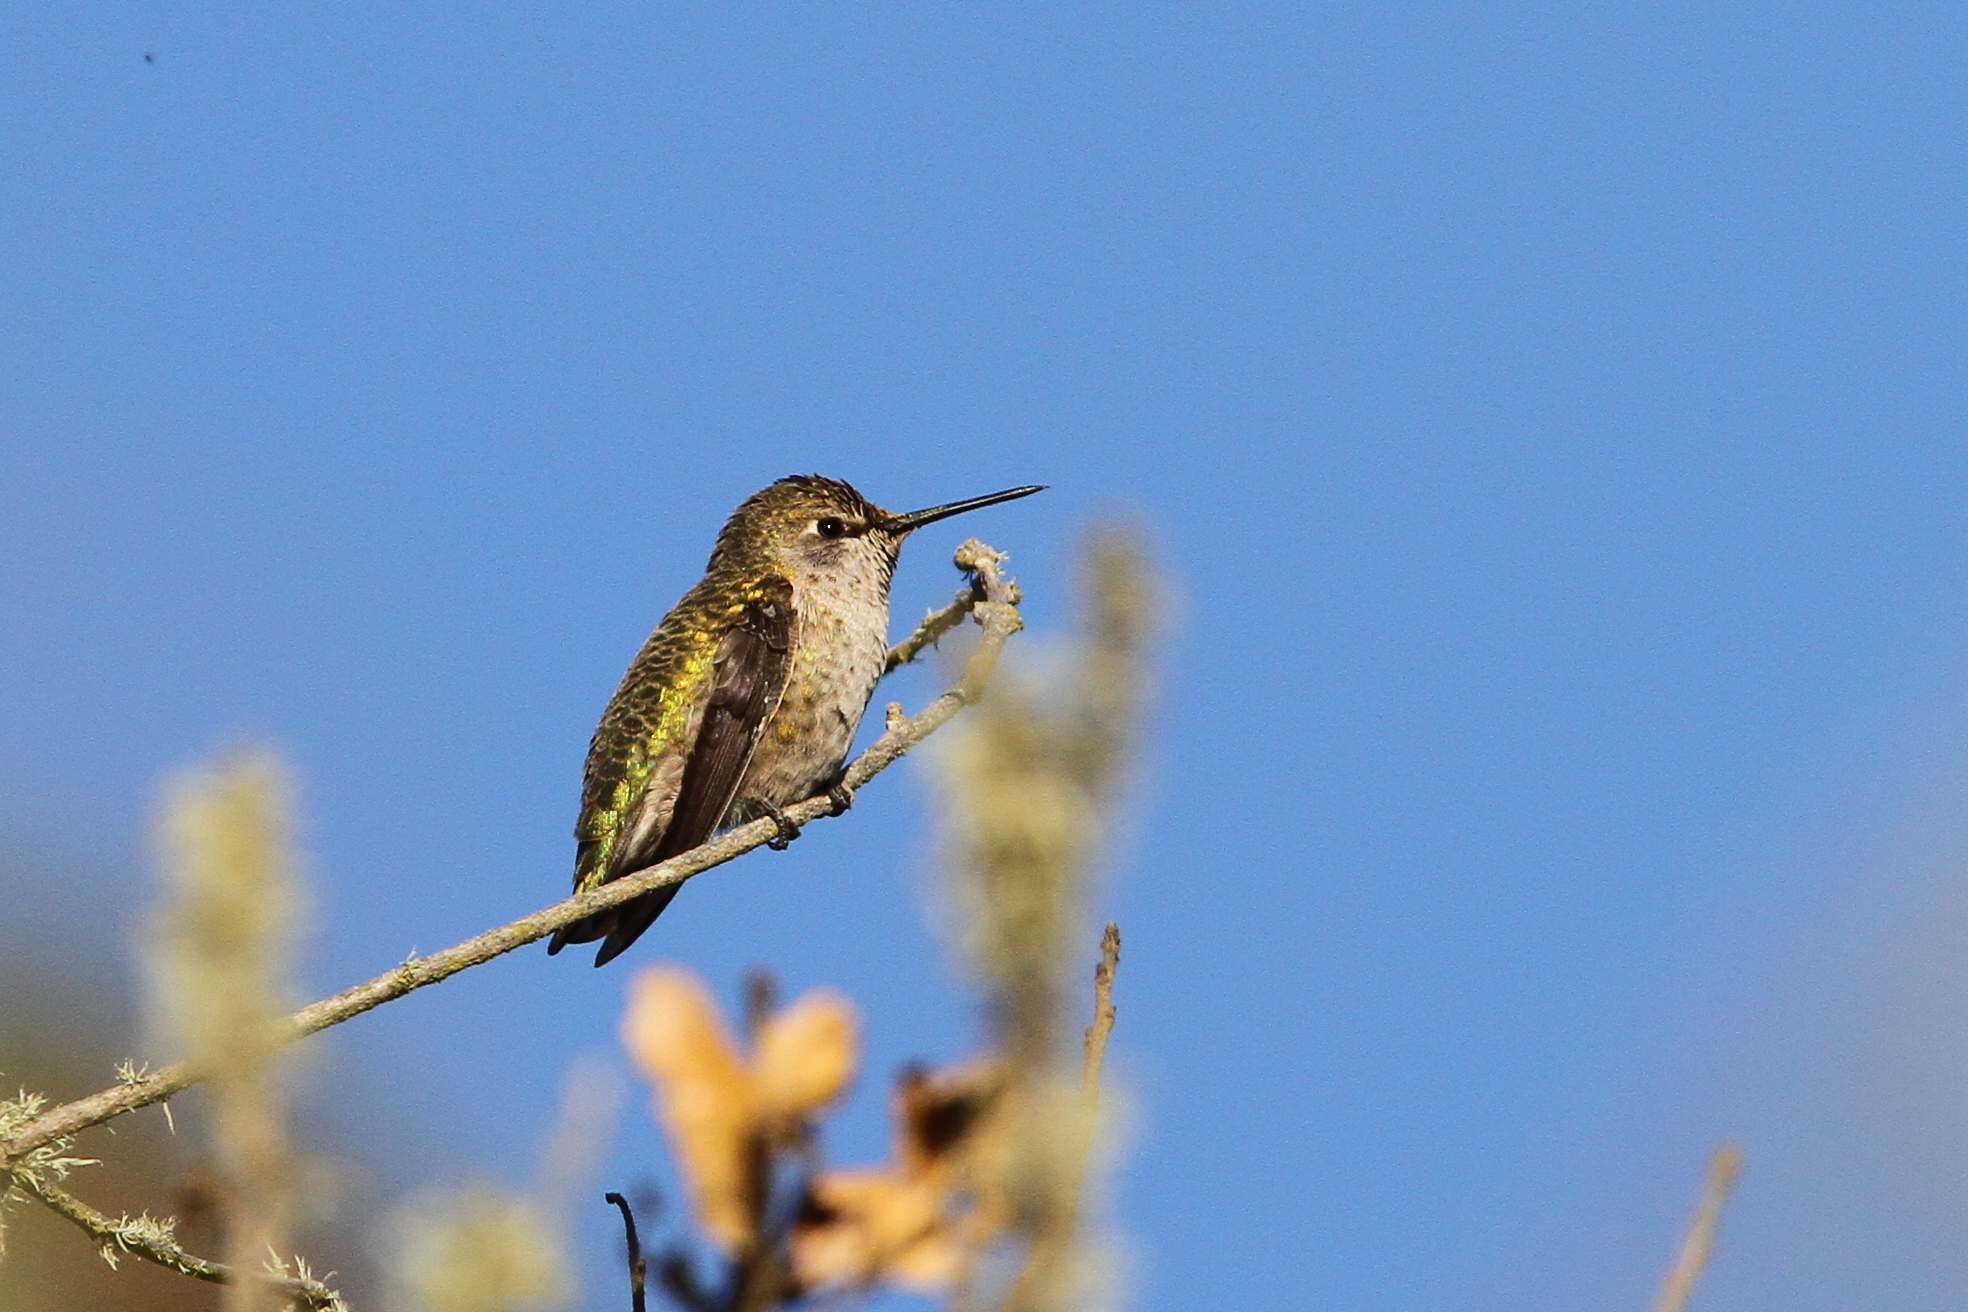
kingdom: Animalia
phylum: Chordata
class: Aves
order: Apodiformes
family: Trochilidae
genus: Calypte
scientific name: Calypte anna
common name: Anna's hummingbird
